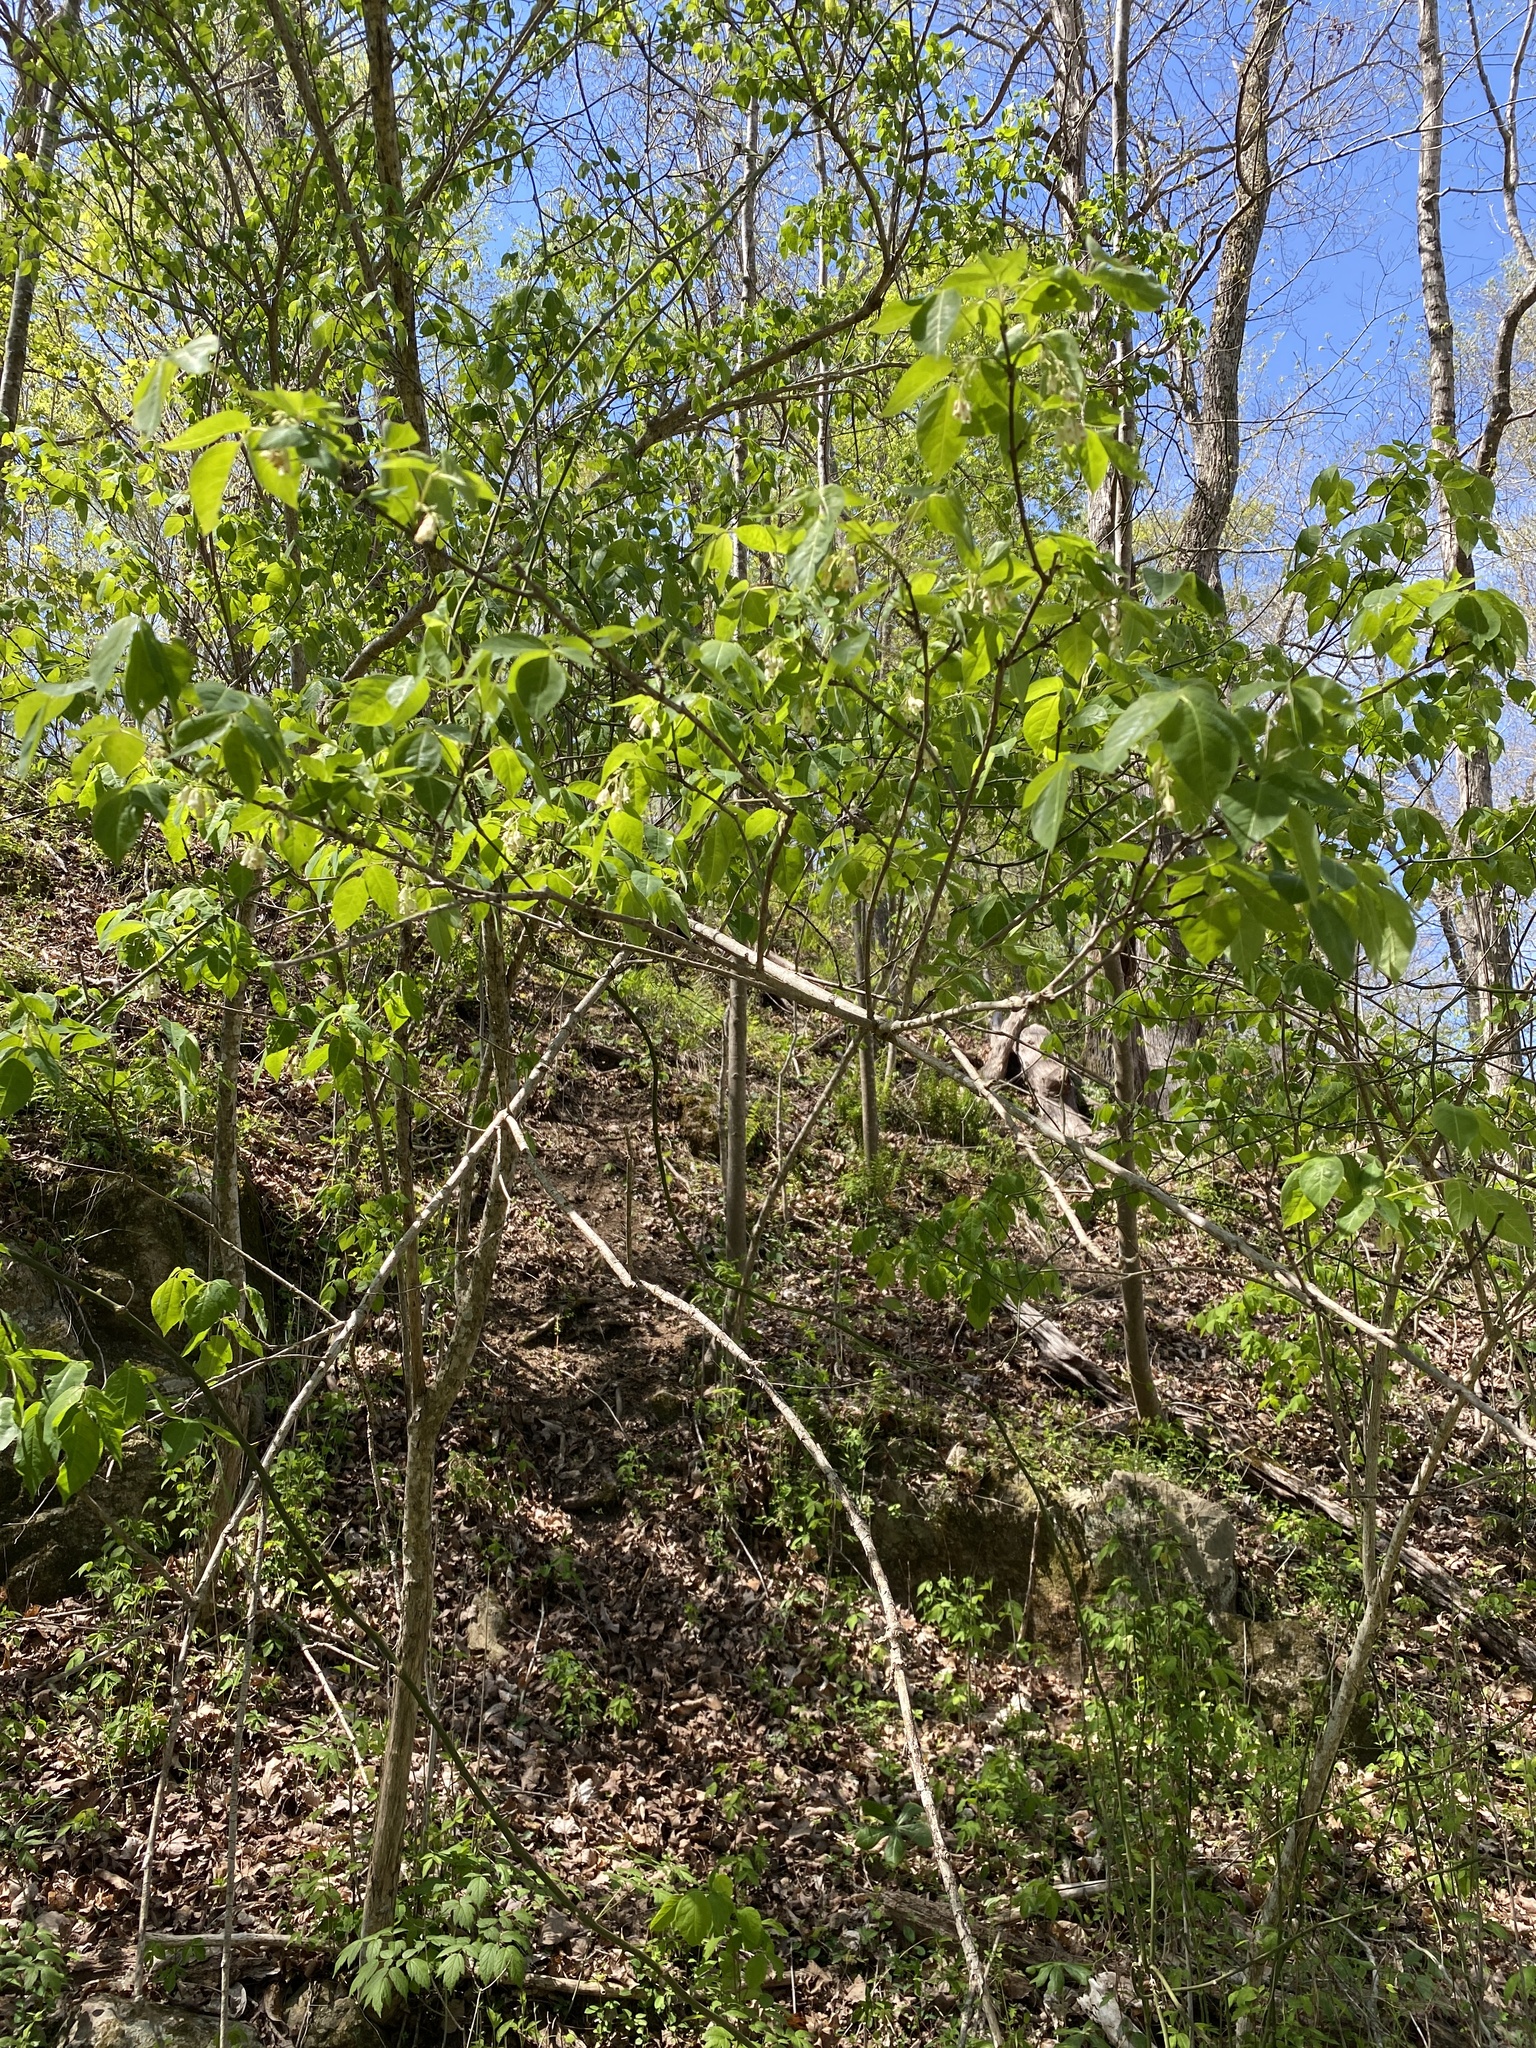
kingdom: Plantae
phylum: Tracheophyta
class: Magnoliopsida
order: Crossosomatales
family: Staphyleaceae
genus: Staphylea
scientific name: Staphylea trifolia
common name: American bladdernut
